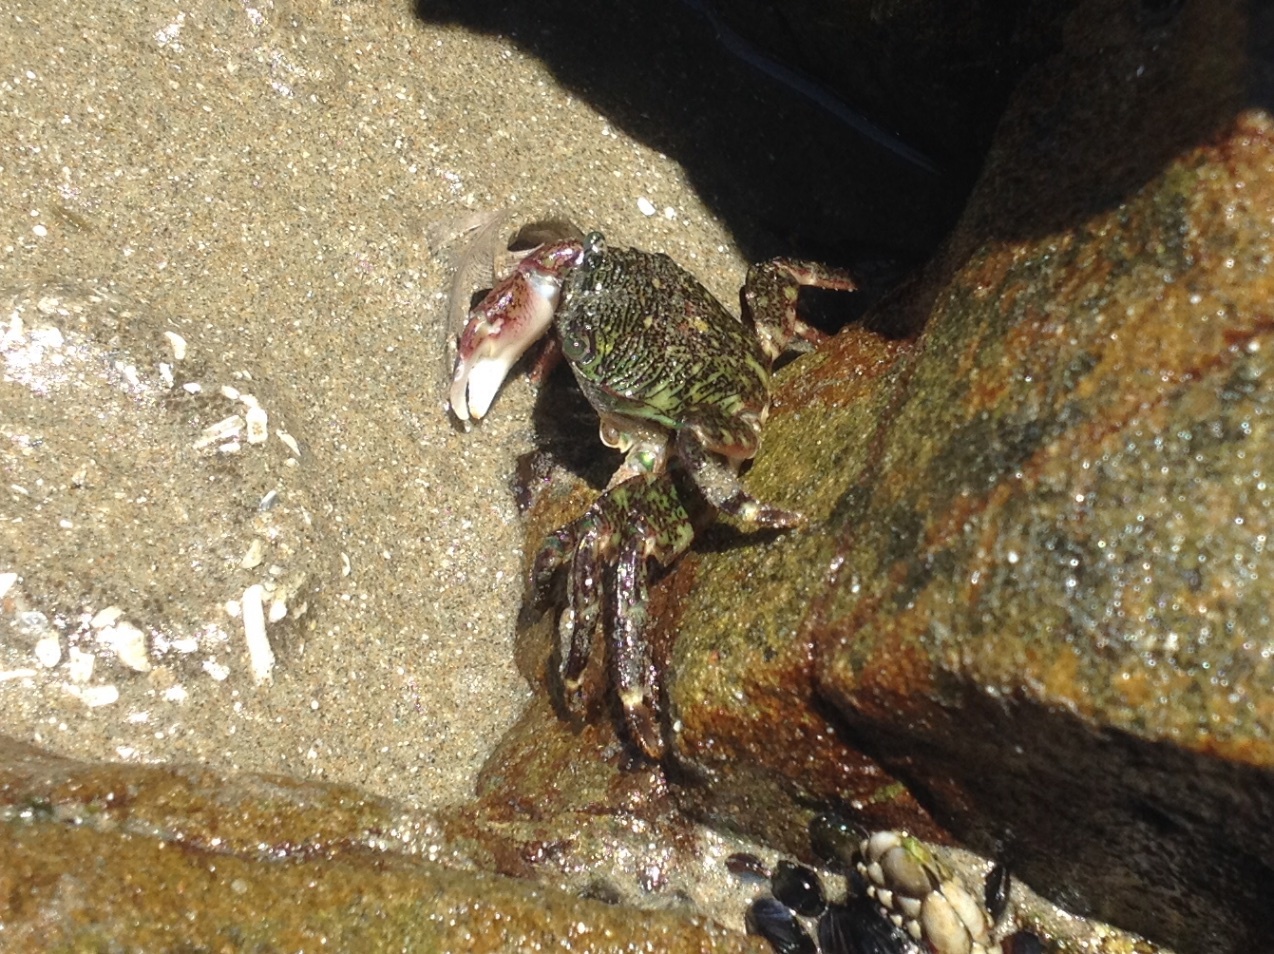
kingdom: Animalia
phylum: Arthropoda
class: Malacostraca
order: Decapoda
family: Grapsidae
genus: Pachygrapsus
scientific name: Pachygrapsus crassipes
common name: Striped shore crab
